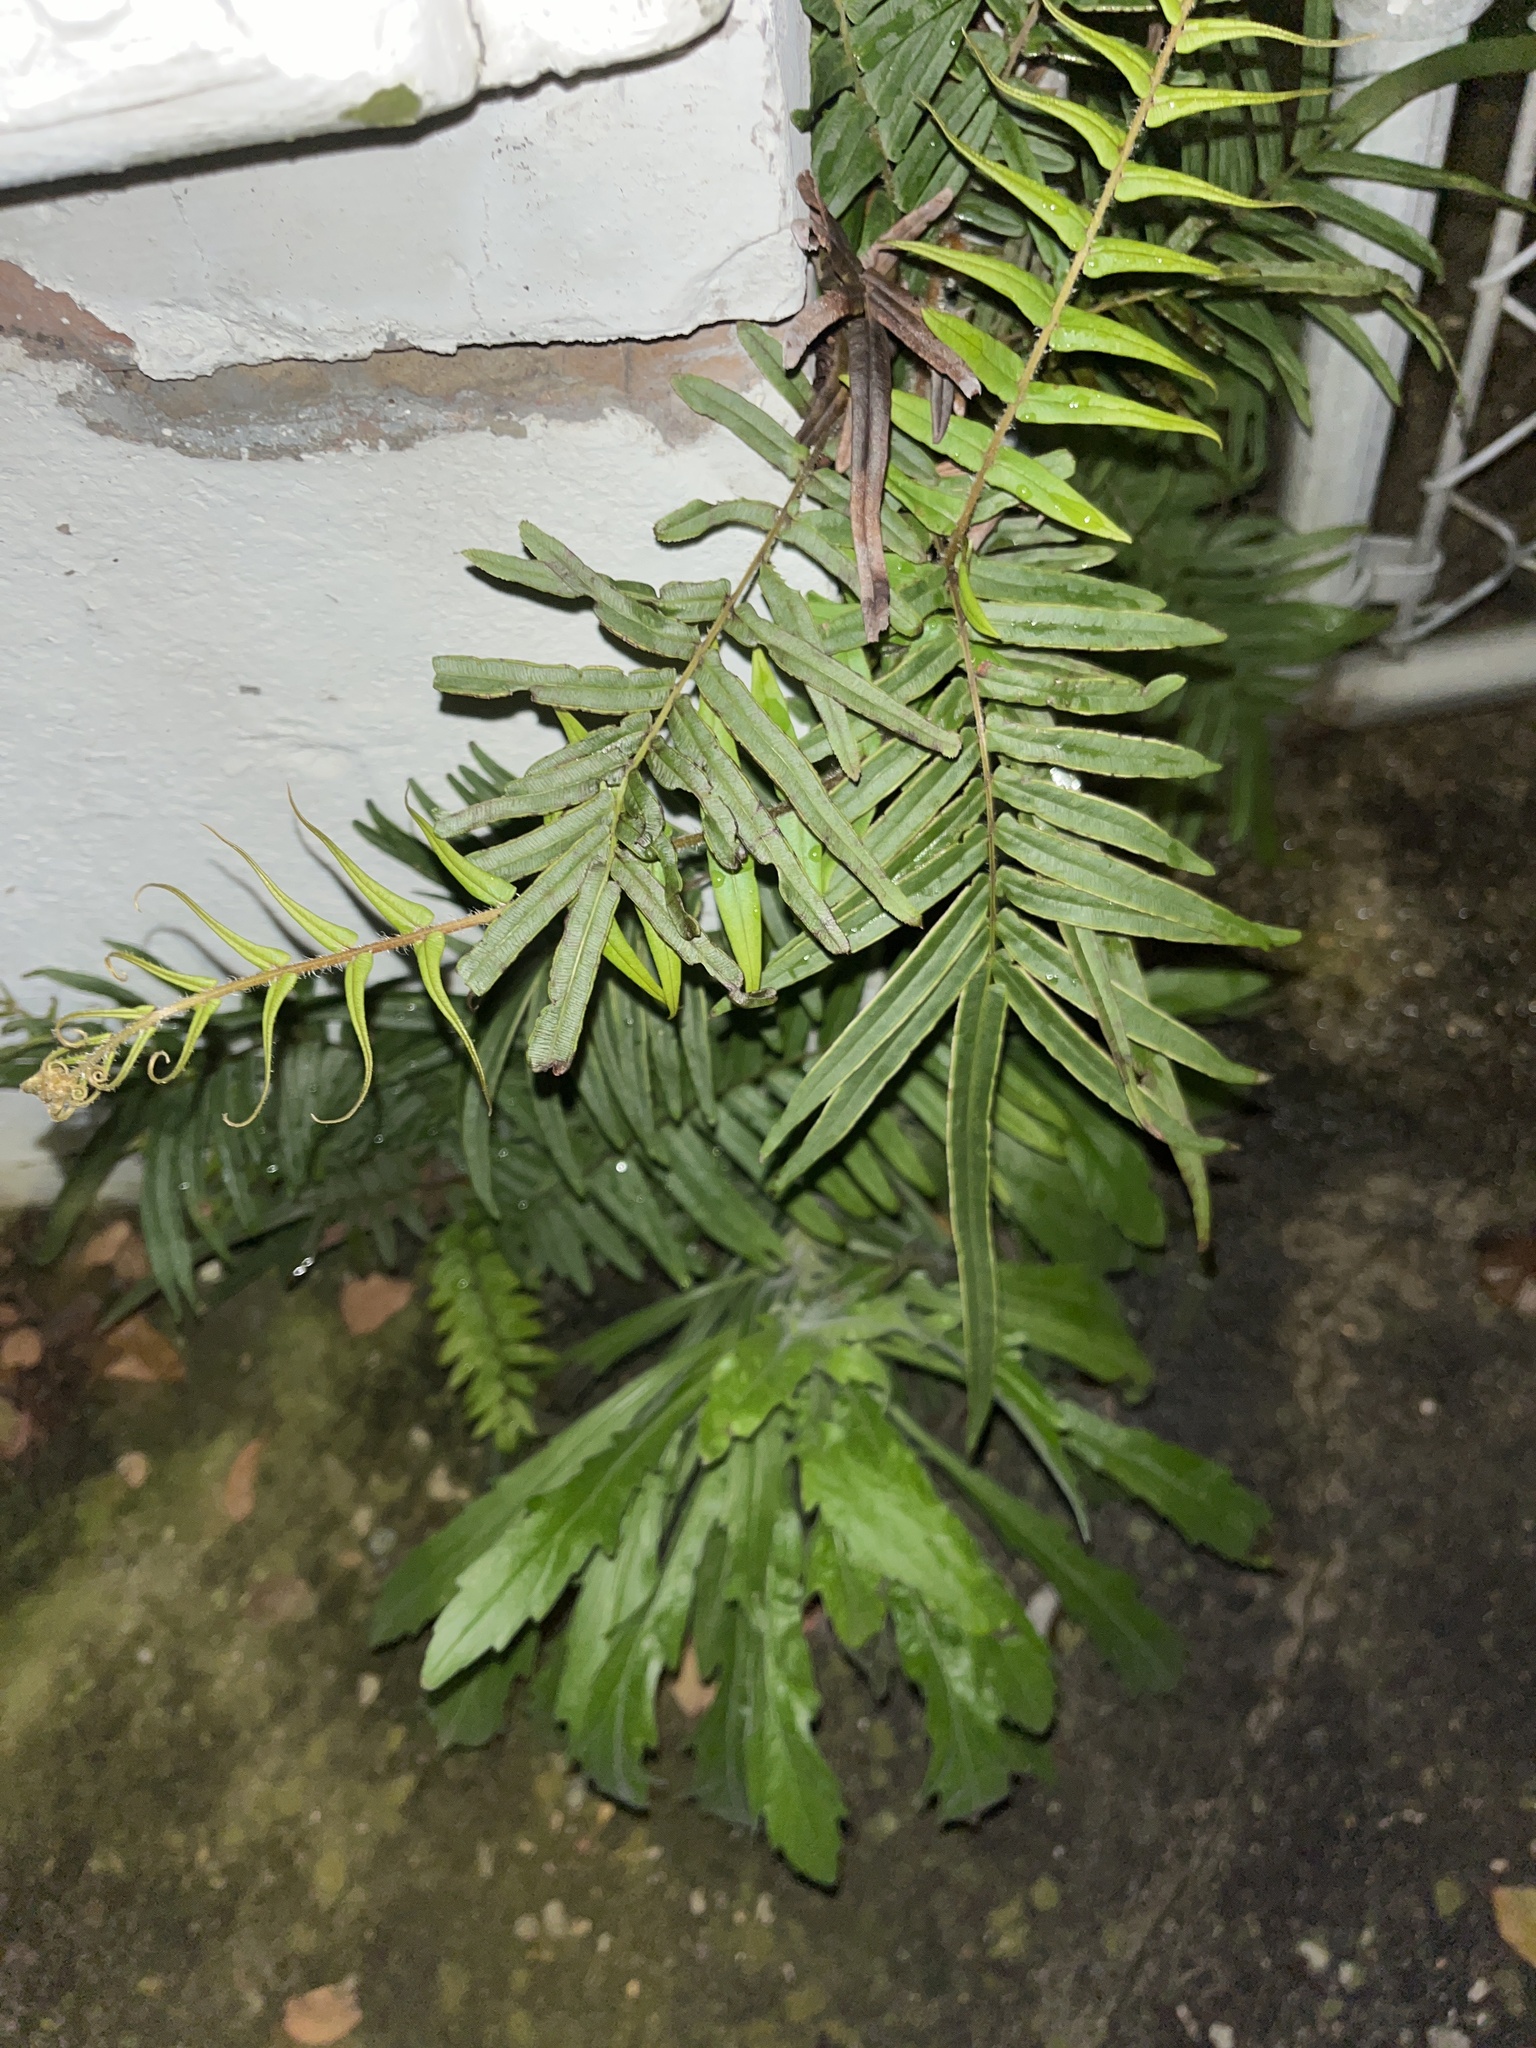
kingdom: Plantae
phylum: Tracheophyta
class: Polypodiopsida
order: Polypodiales
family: Pteridaceae
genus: Pteris
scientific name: Pteris vittata
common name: Ladder brake
